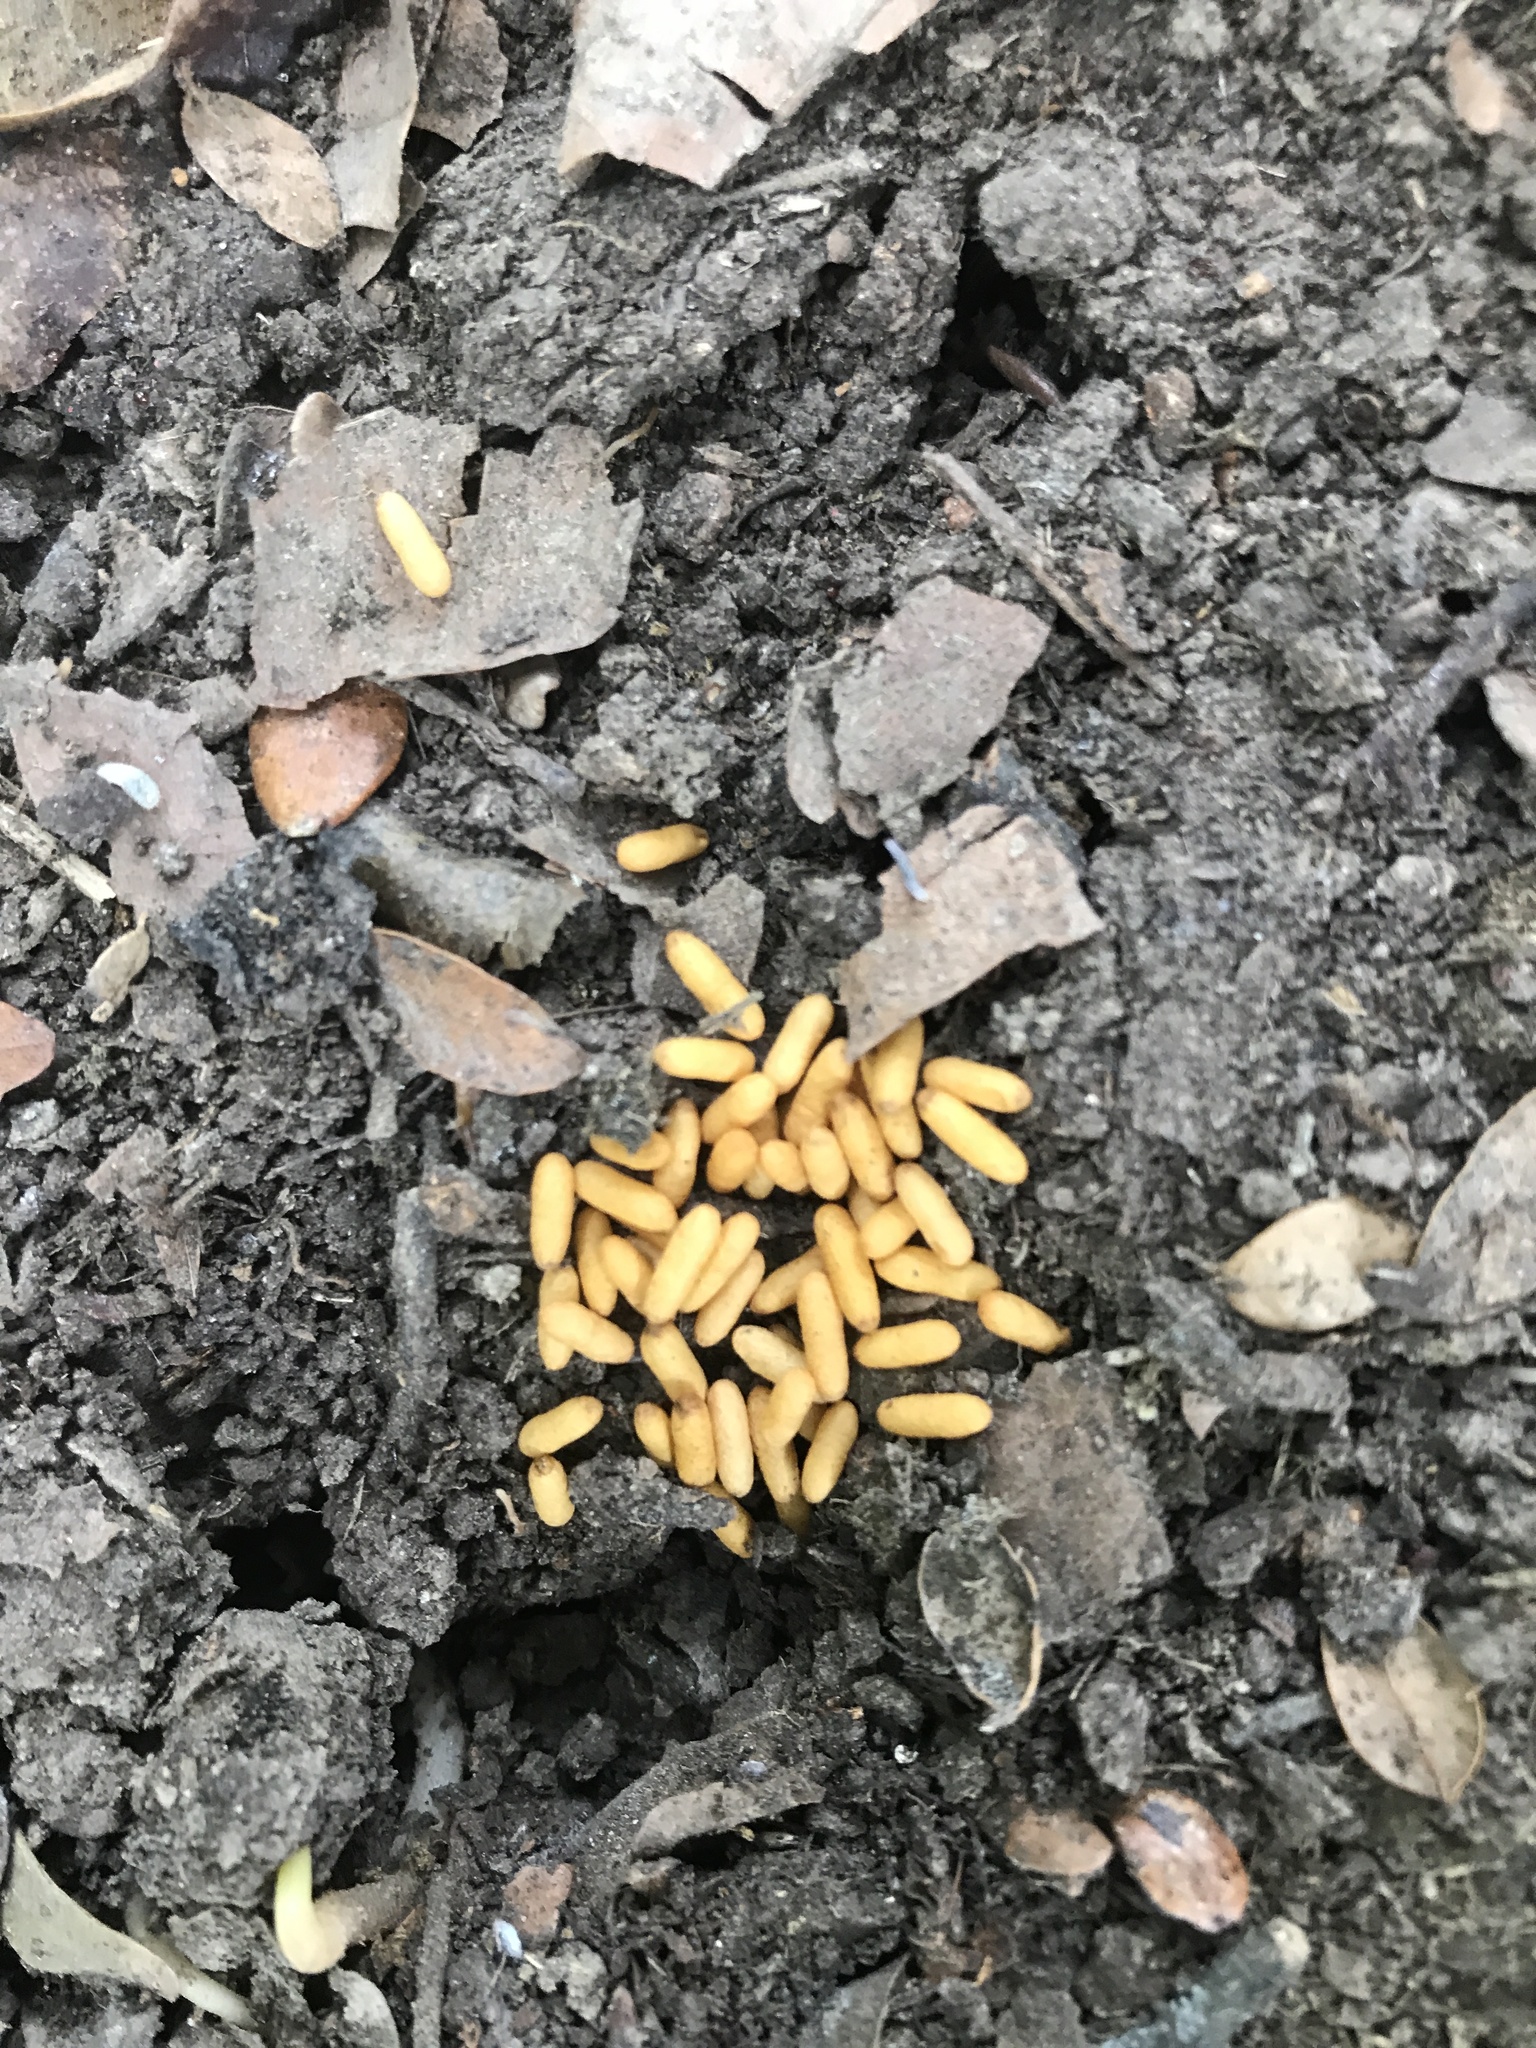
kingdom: Animalia
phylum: Arthropoda
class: Insecta
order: Hymenoptera
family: Formicidae
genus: Amblyopone
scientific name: Amblyopone australis
